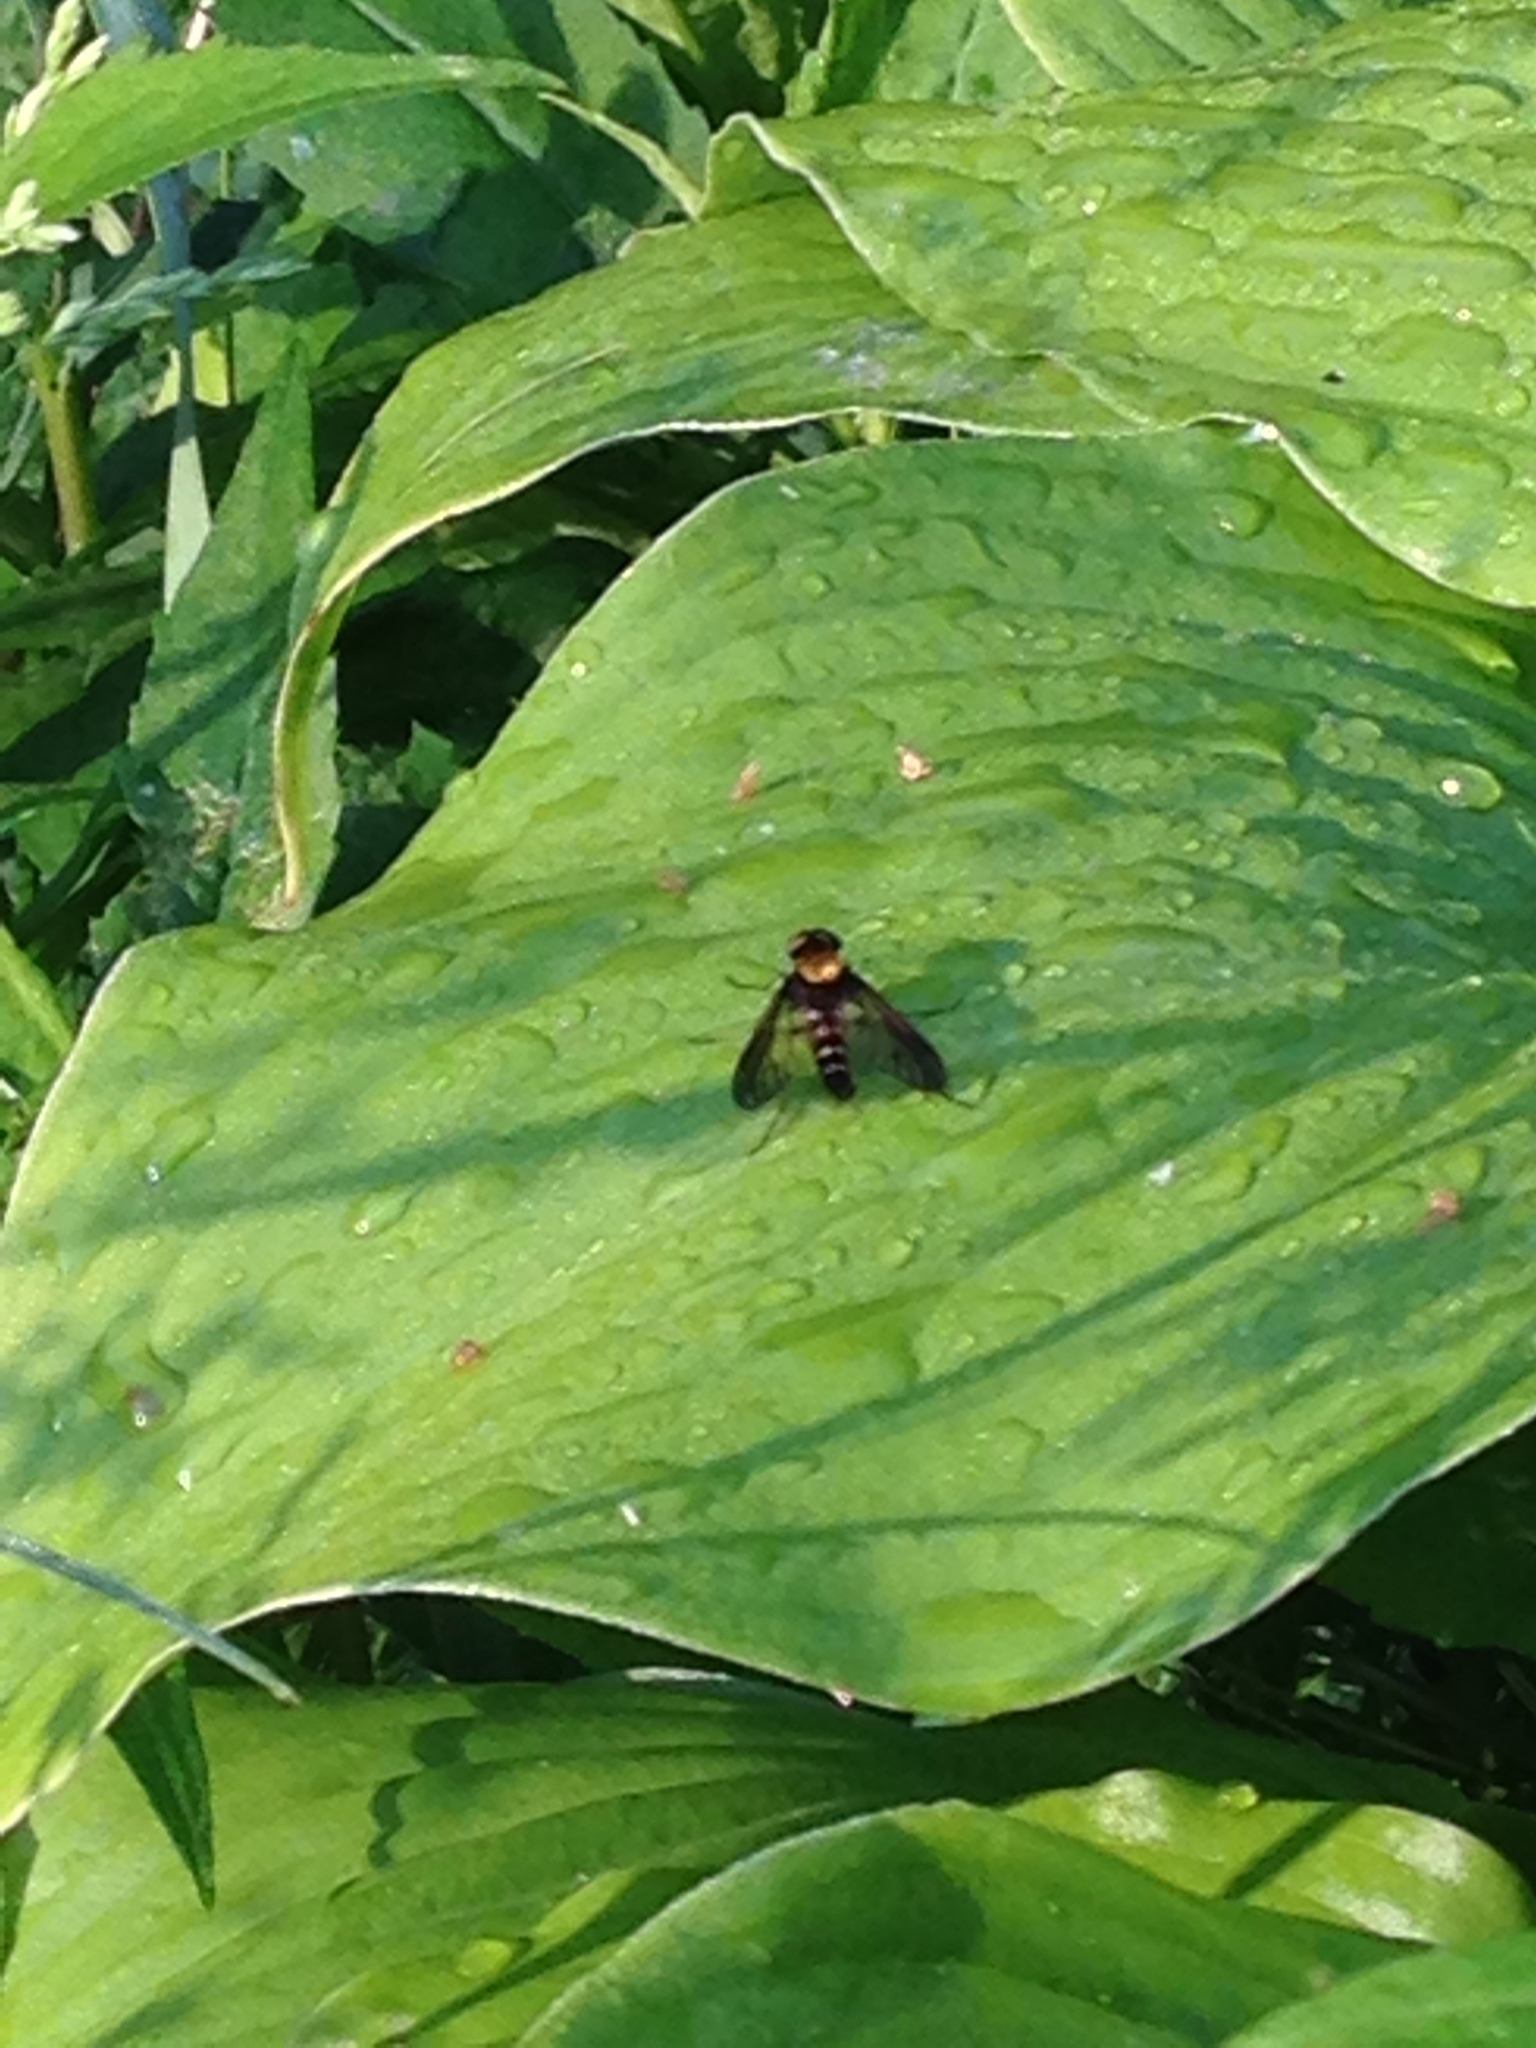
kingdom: Animalia
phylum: Arthropoda
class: Insecta
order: Diptera
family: Rhagionidae
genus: Chrysopilus
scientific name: Chrysopilus thoracicus
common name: Golden-backed snipe fly
